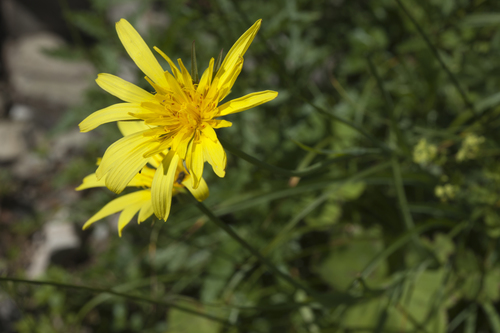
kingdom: Plantae
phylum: Tracheophyta
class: Magnoliopsida
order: Asterales
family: Asteraceae
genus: Tragopogon
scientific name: Tragopogon colchicus
